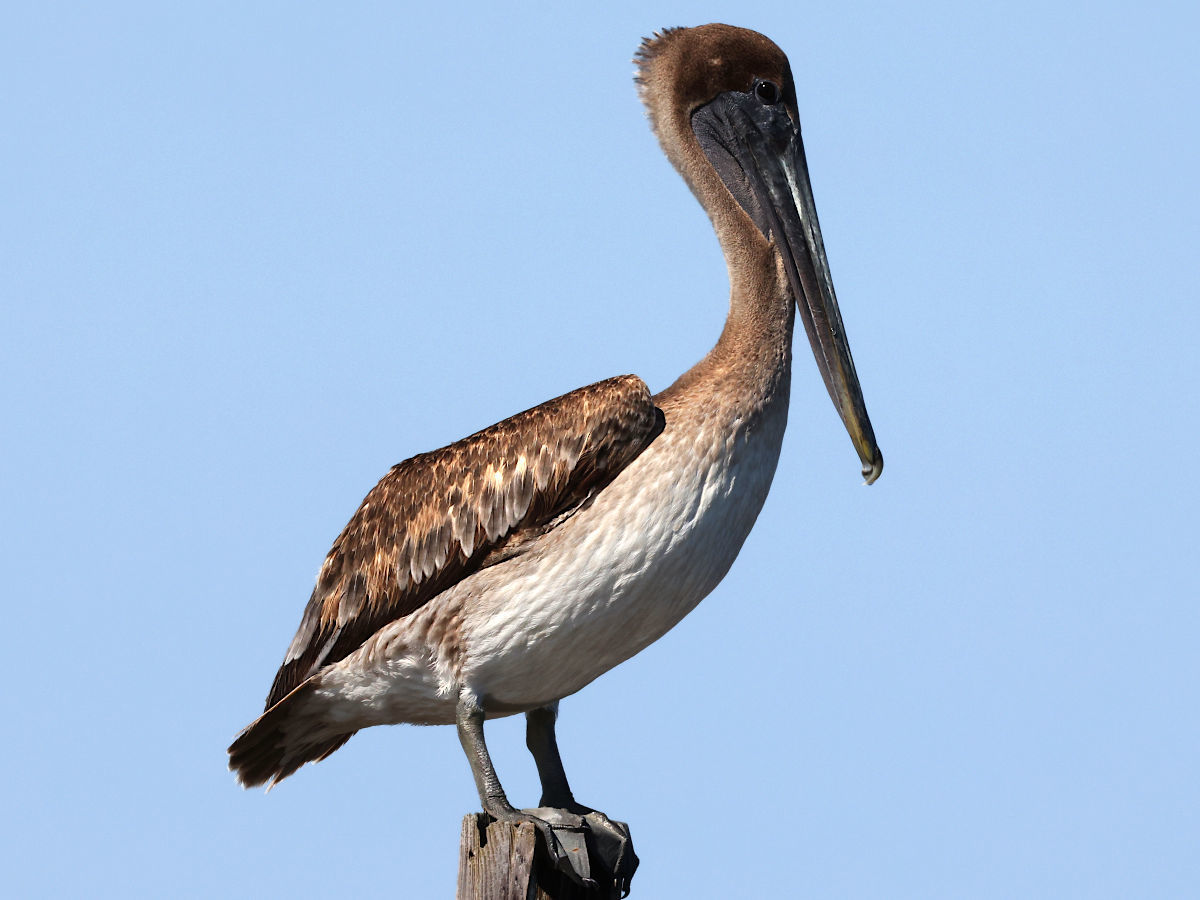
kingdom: Animalia
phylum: Chordata
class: Aves
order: Pelecaniformes
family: Pelecanidae
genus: Pelecanus
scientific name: Pelecanus occidentalis
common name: Brown pelican
